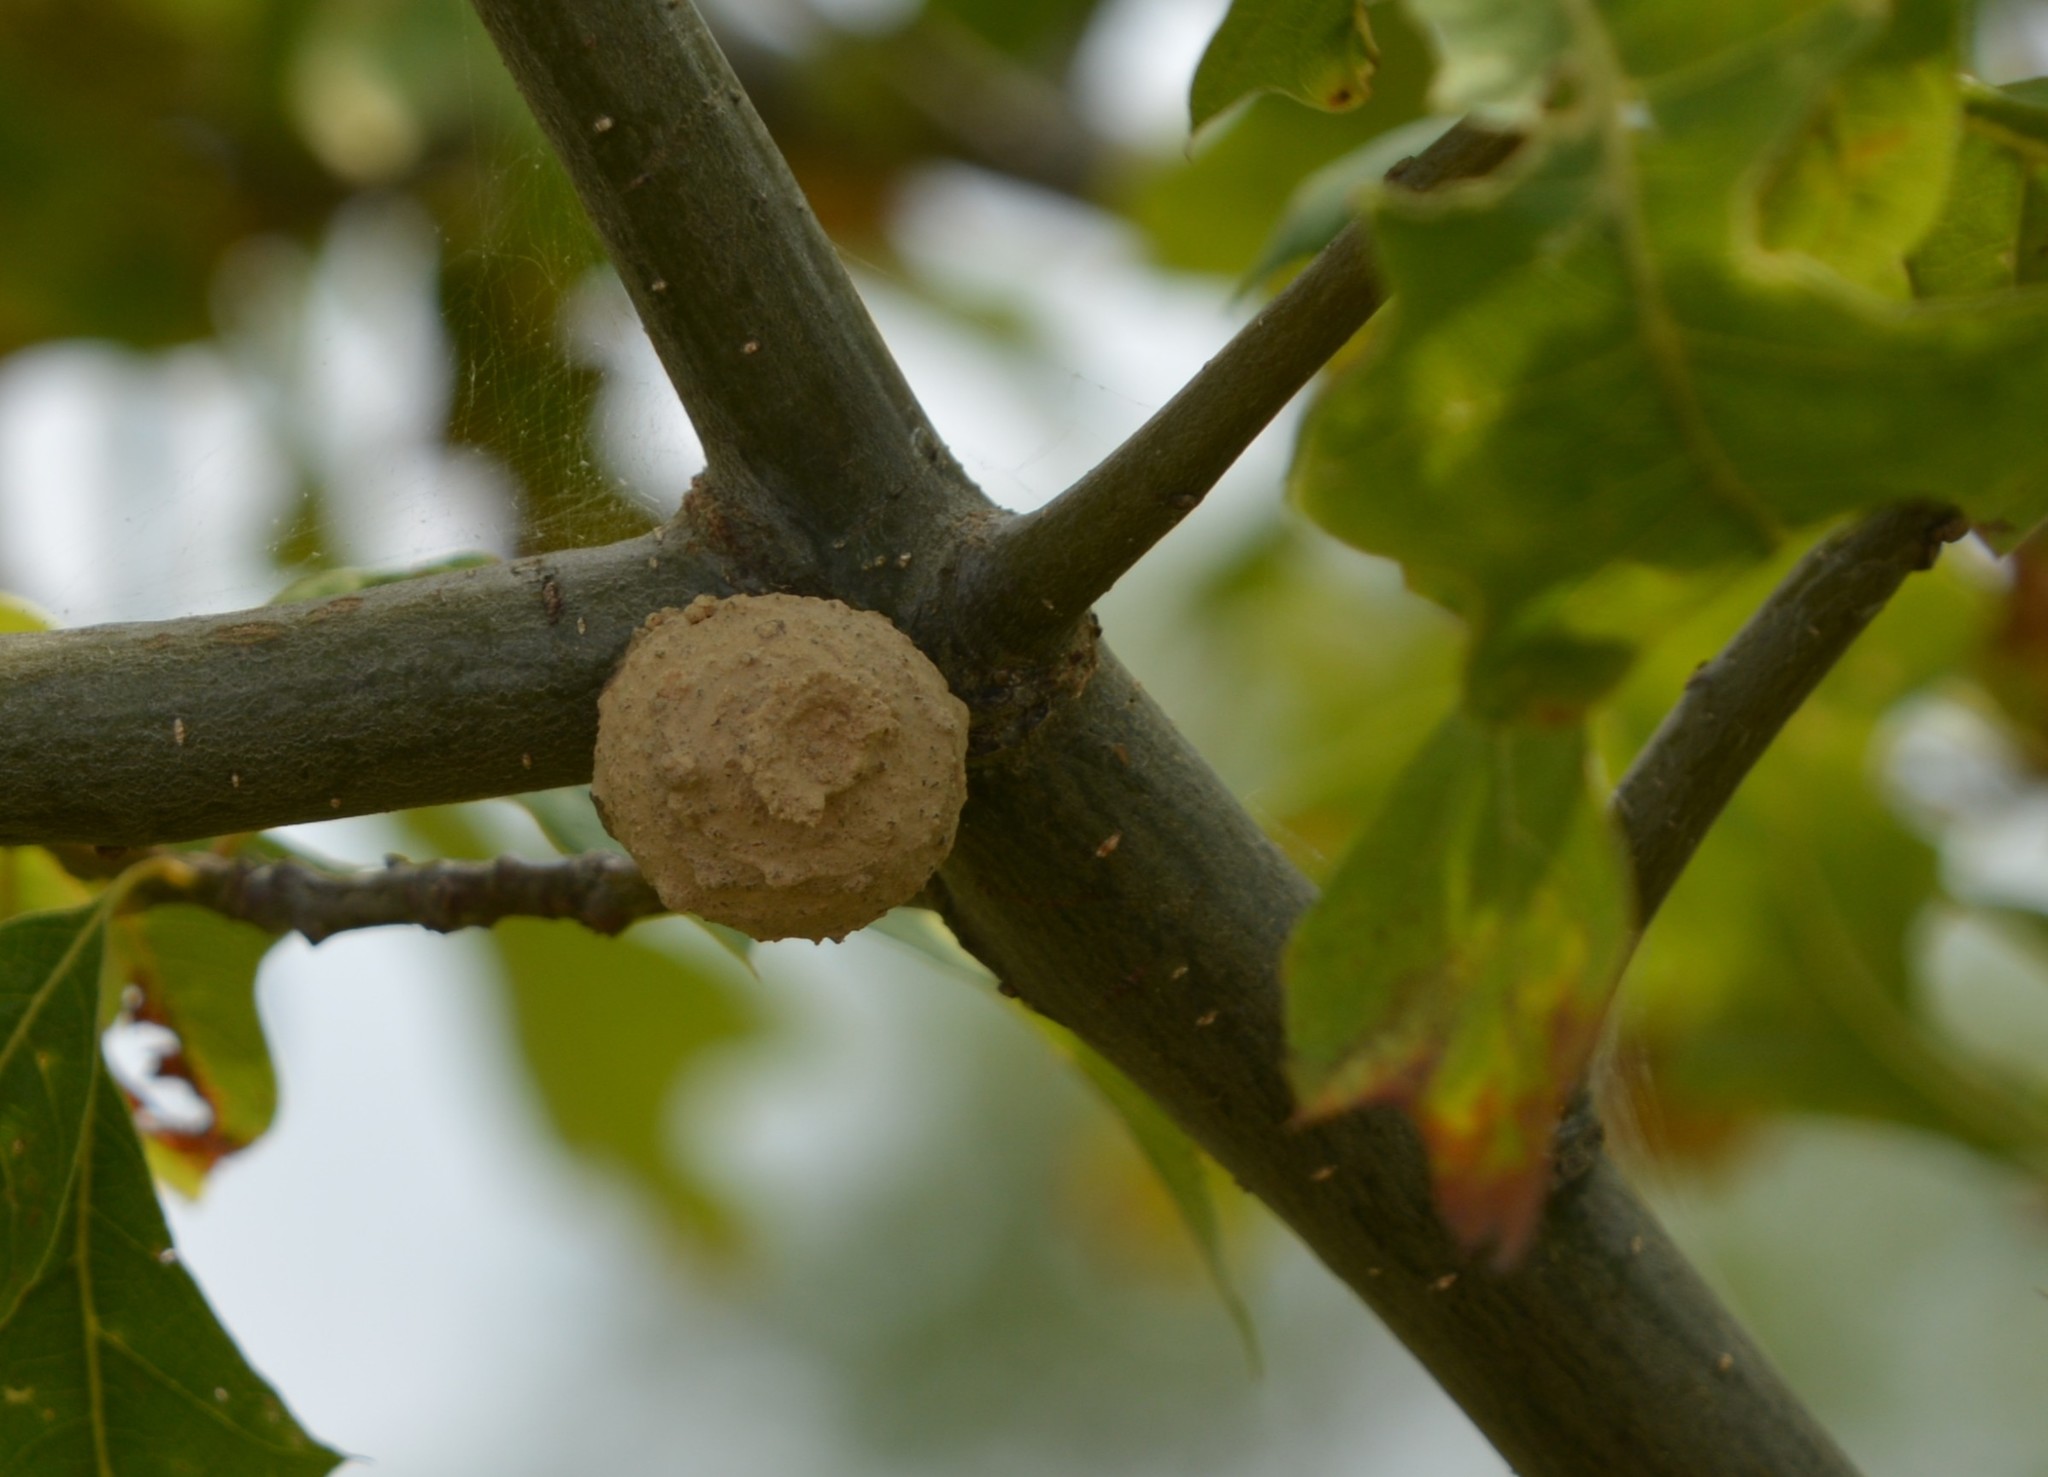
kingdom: Animalia
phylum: Arthropoda
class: Insecta
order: Hymenoptera
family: Vespidae
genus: Eumenes
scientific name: Eumenes
